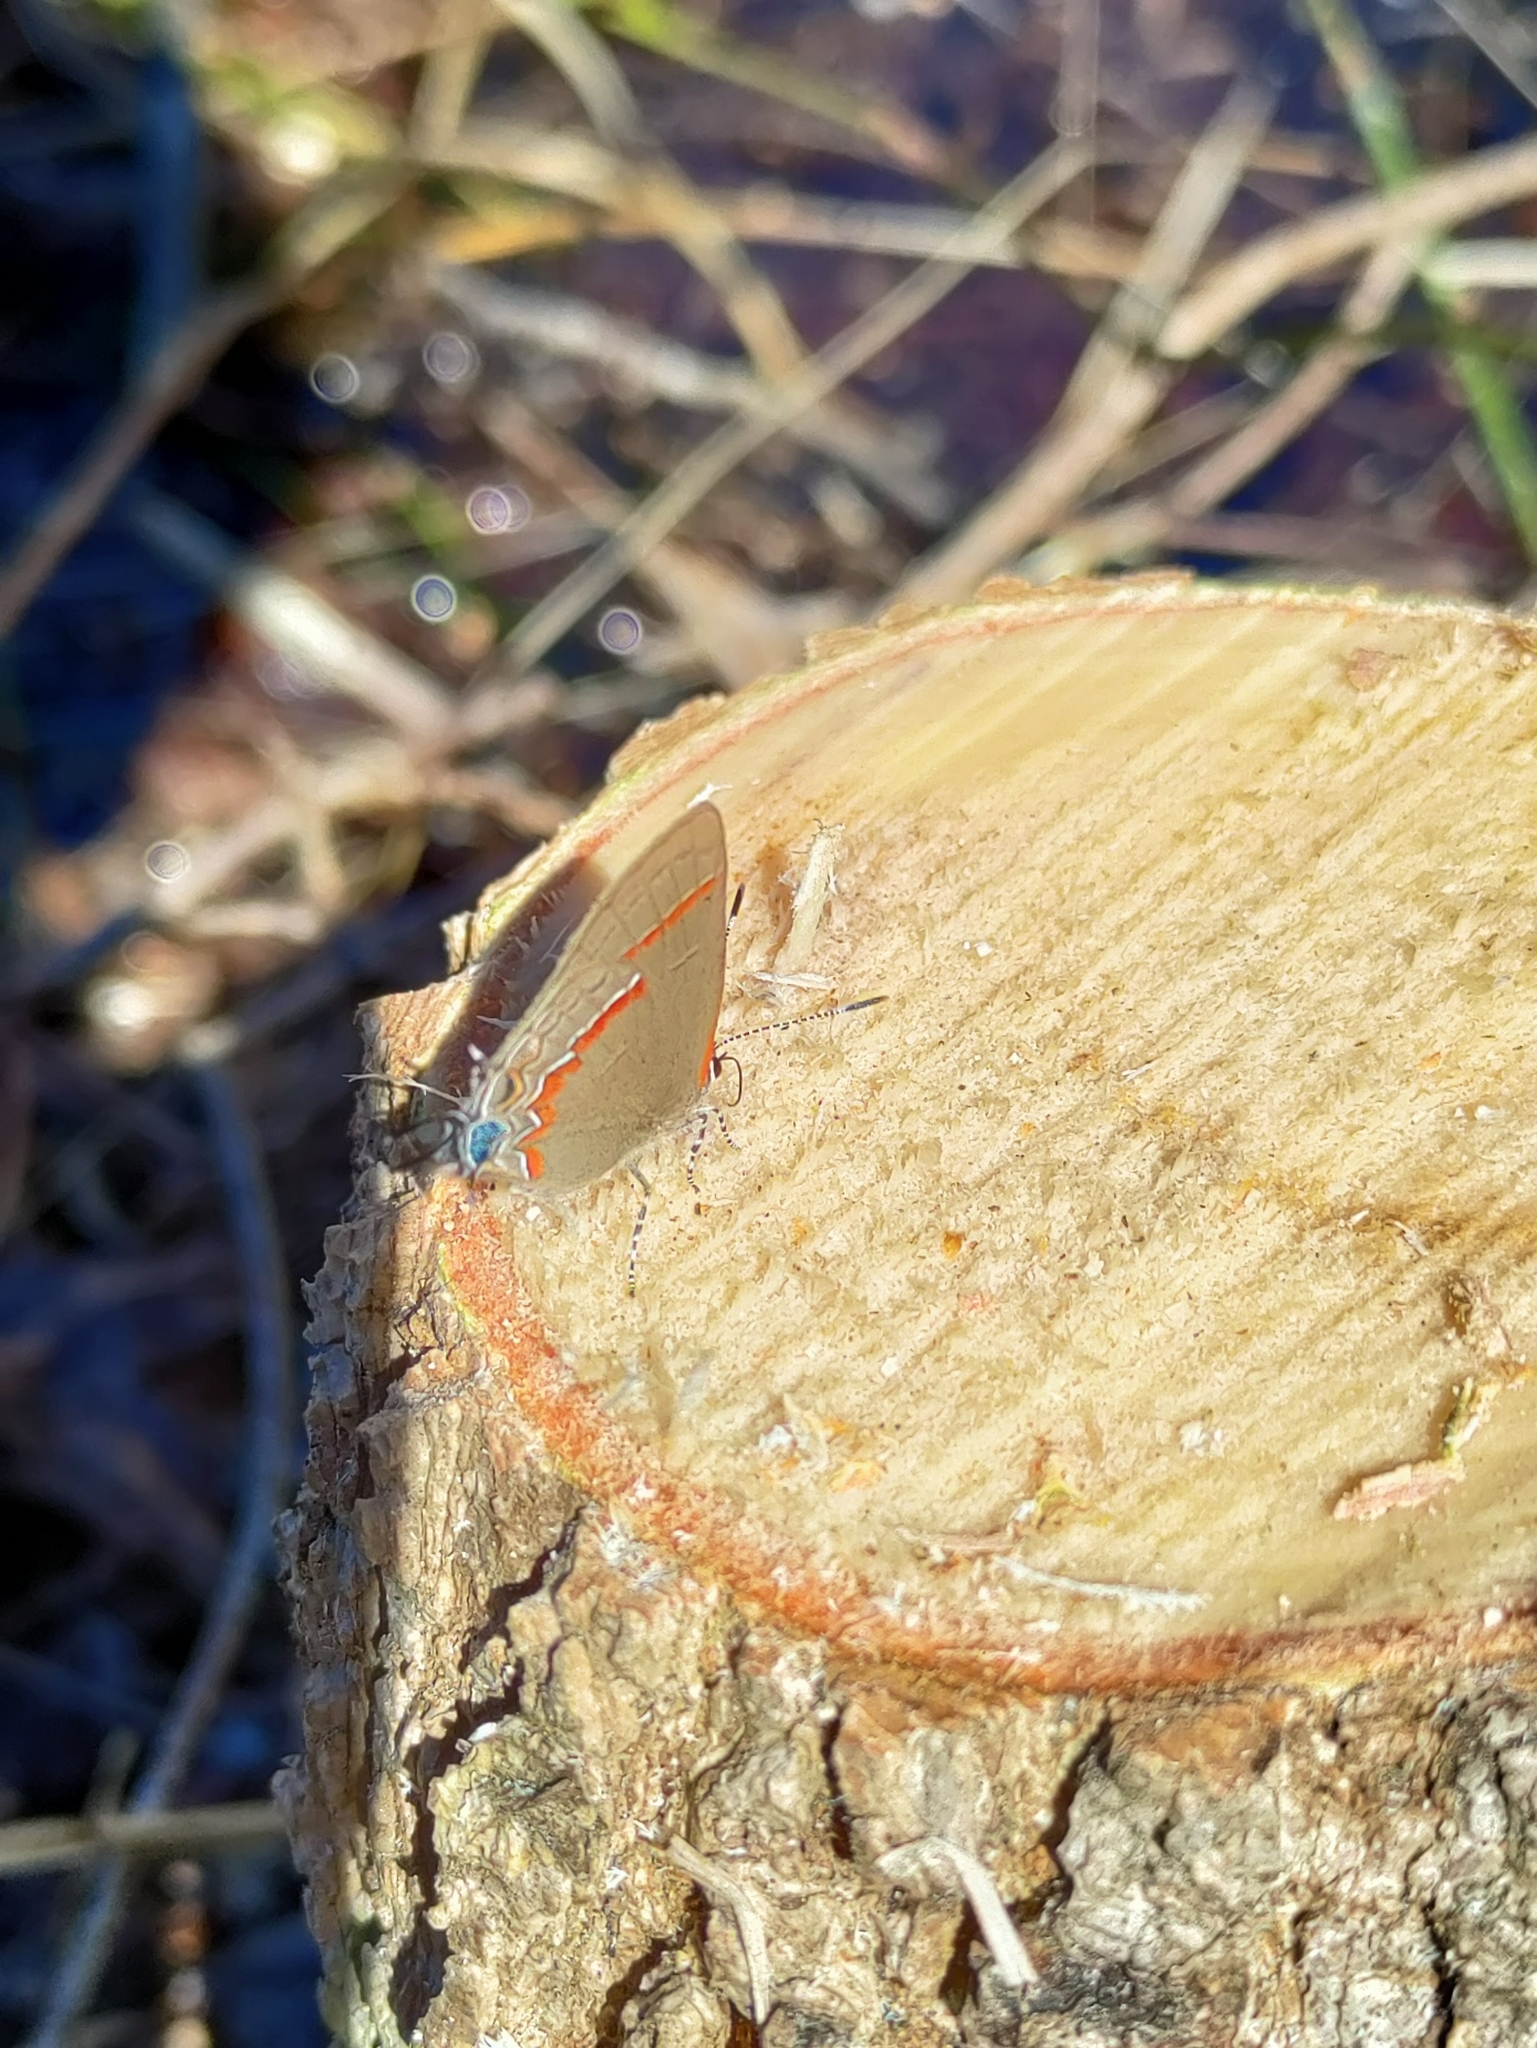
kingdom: Animalia
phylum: Arthropoda
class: Insecta
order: Lepidoptera
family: Lycaenidae
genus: Calycopis
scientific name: Calycopis cecrops
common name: Red-banded hairstreak
